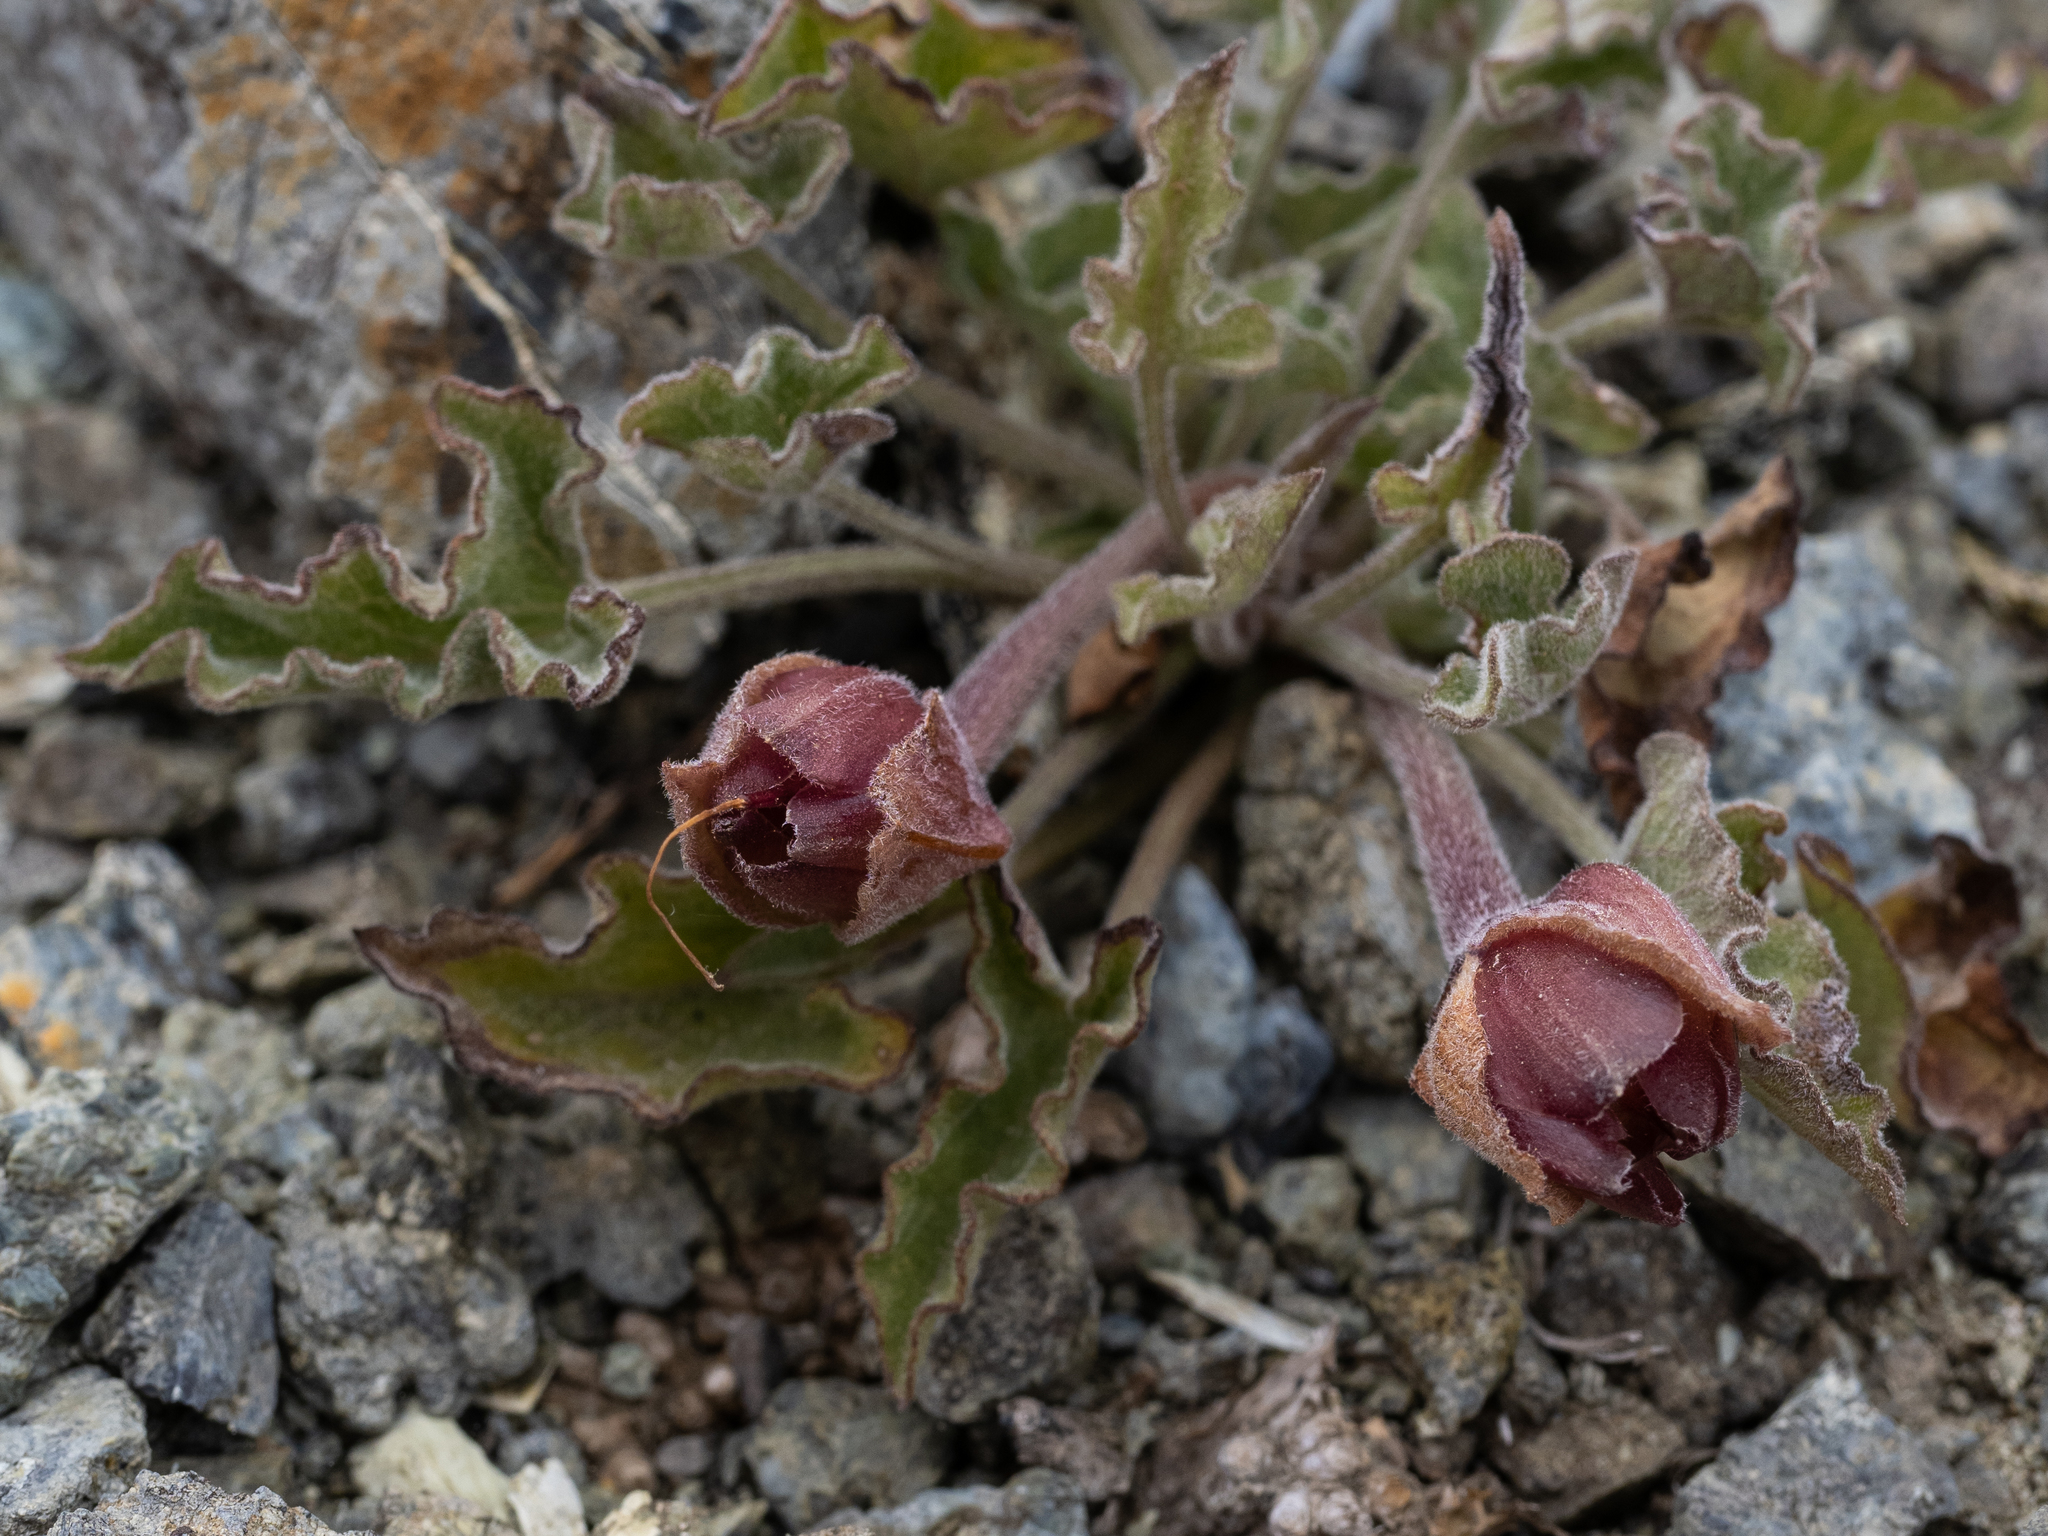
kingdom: Plantae
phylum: Tracheophyta
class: Magnoliopsida
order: Solanales
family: Convolvulaceae
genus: Calystegia
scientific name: Calystegia collina
